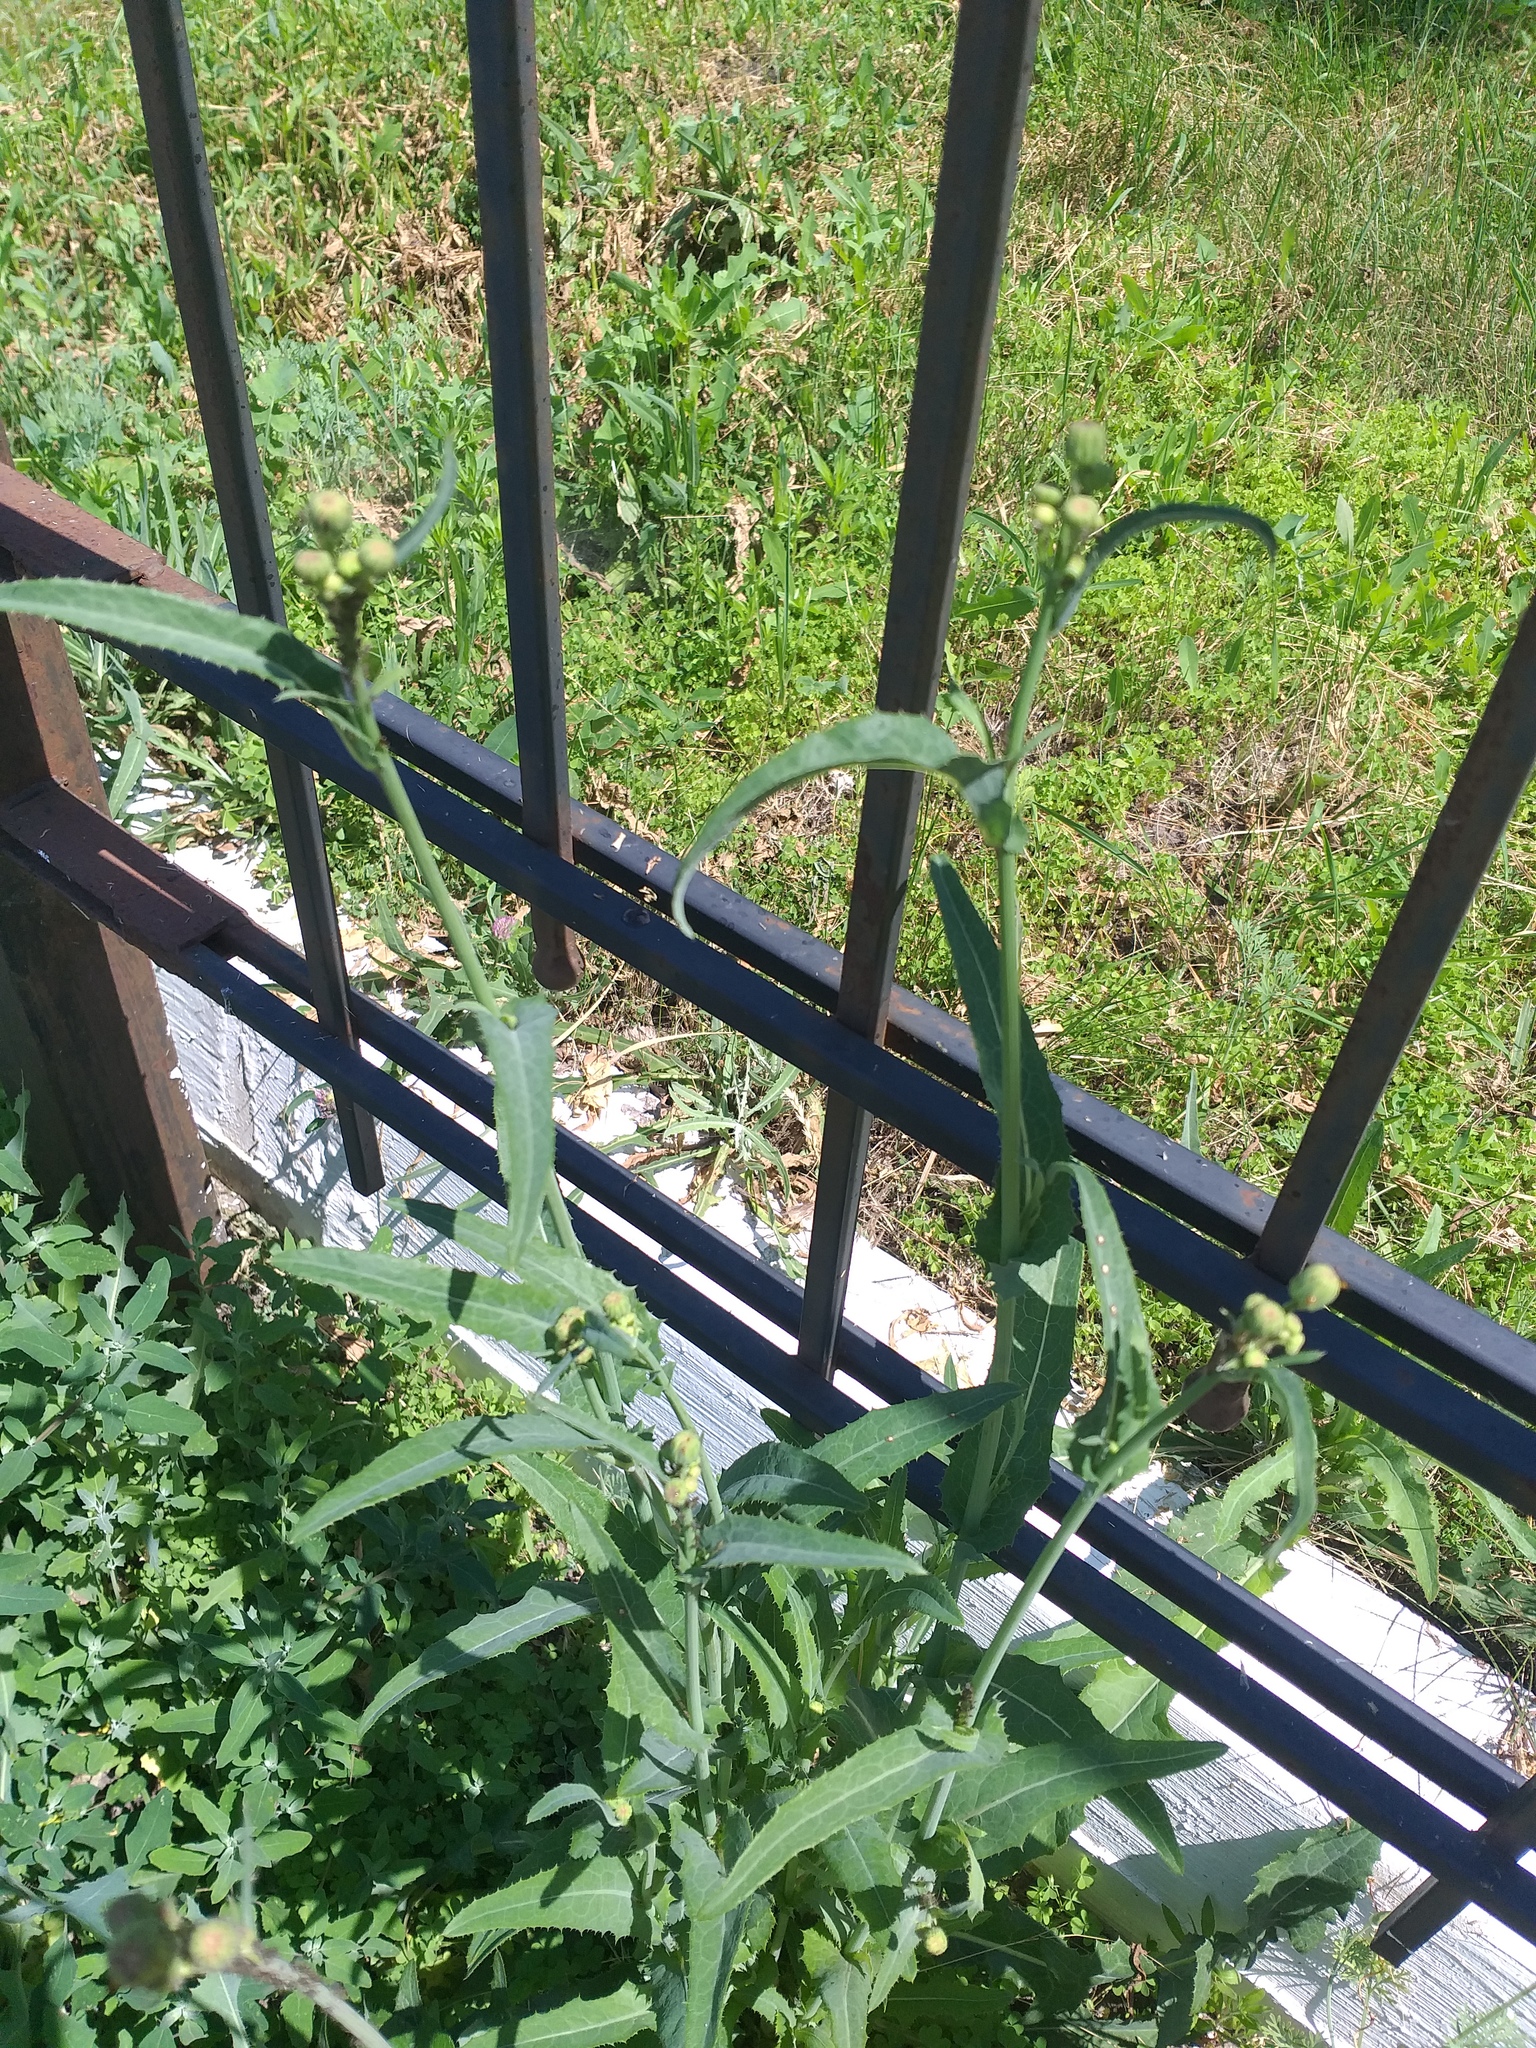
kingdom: Plantae
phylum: Tracheophyta
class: Magnoliopsida
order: Asterales
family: Asteraceae
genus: Sonchus
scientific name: Sonchus arvensis
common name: Perennial sow-thistle
